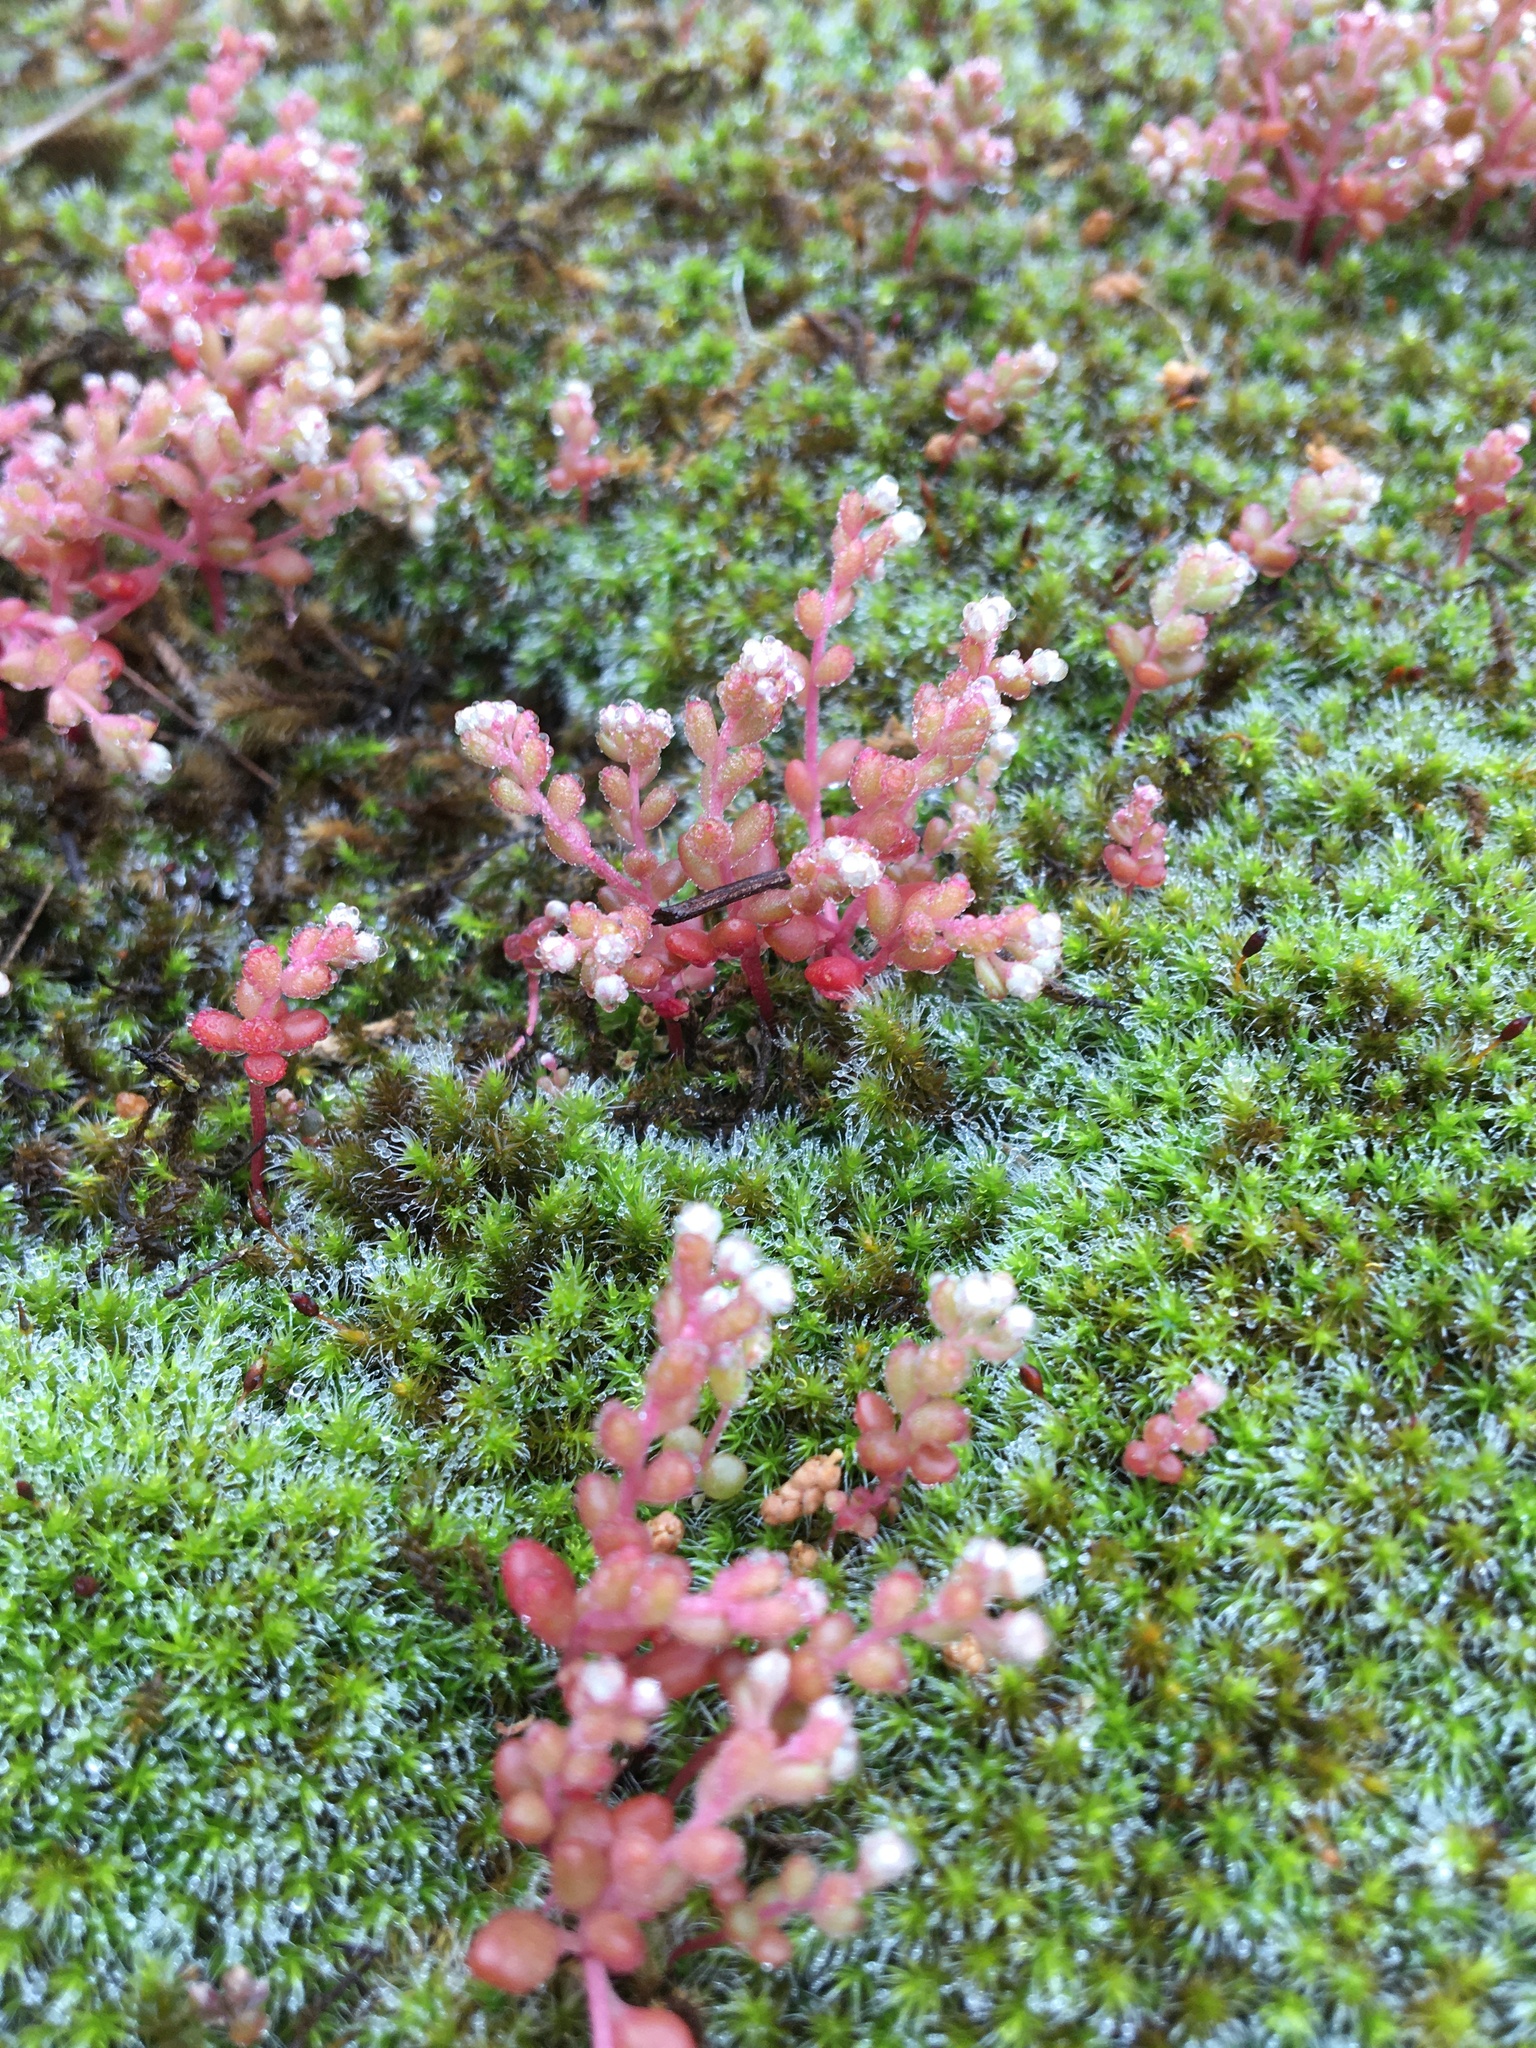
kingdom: Plantae
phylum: Tracheophyta
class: Magnoliopsida
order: Saxifragales
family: Crassulaceae
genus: Sedum
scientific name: Sedum smallii
